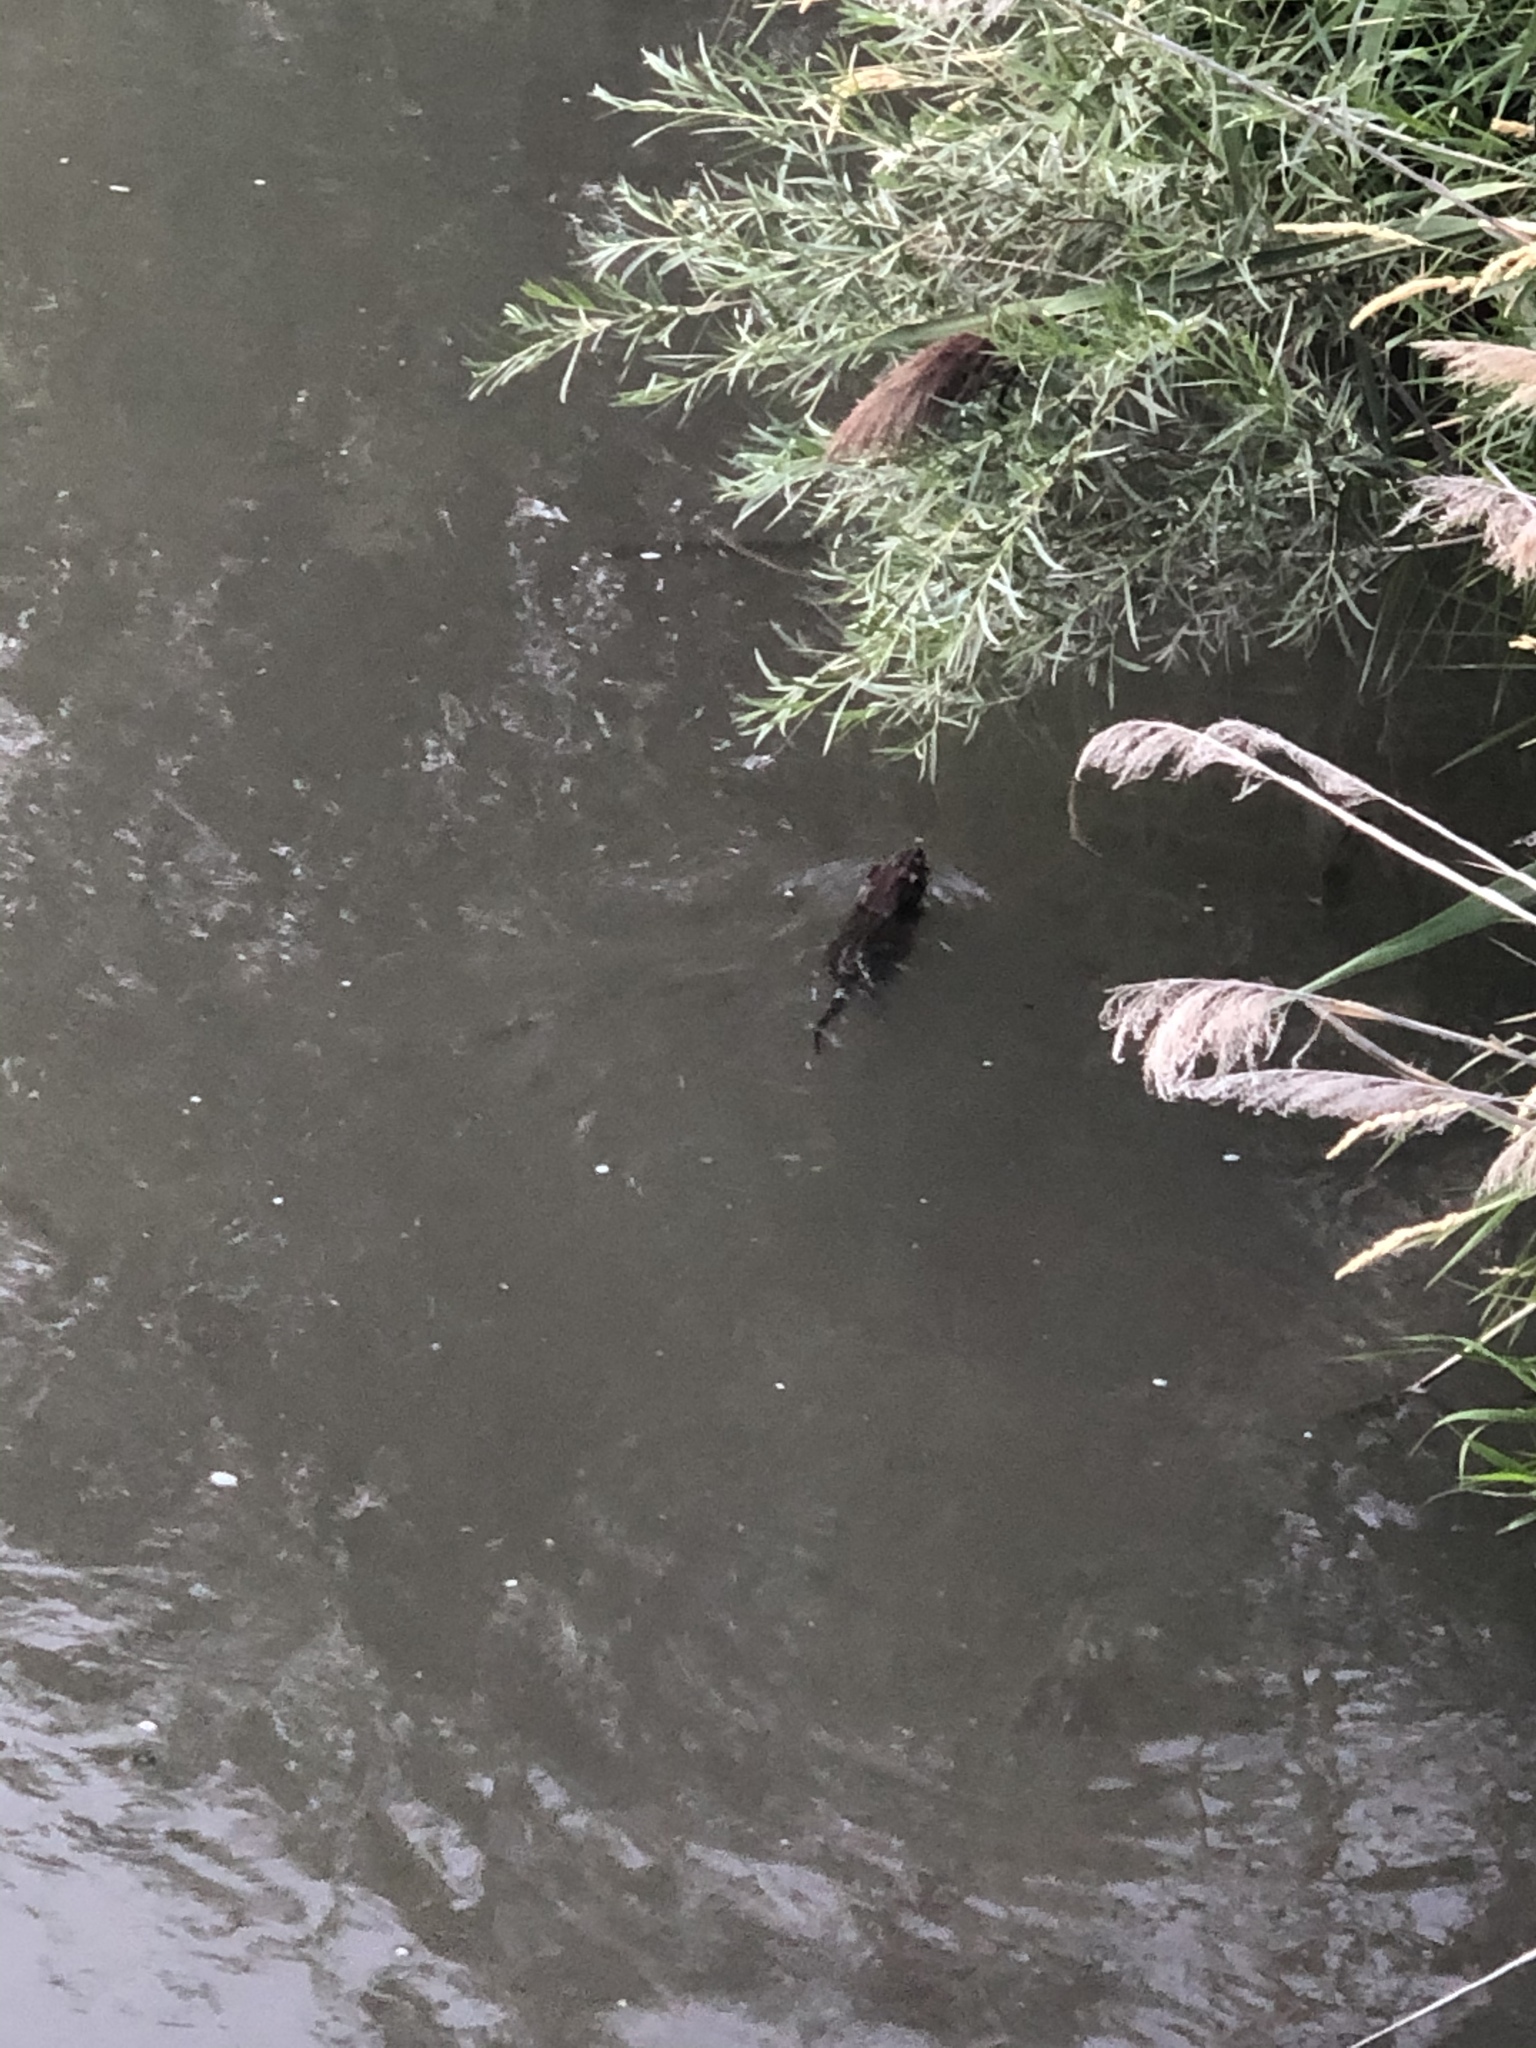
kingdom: Animalia
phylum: Chordata
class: Mammalia
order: Rodentia
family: Cricetidae
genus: Ondatra
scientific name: Ondatra zibethicus
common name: Muskrat
